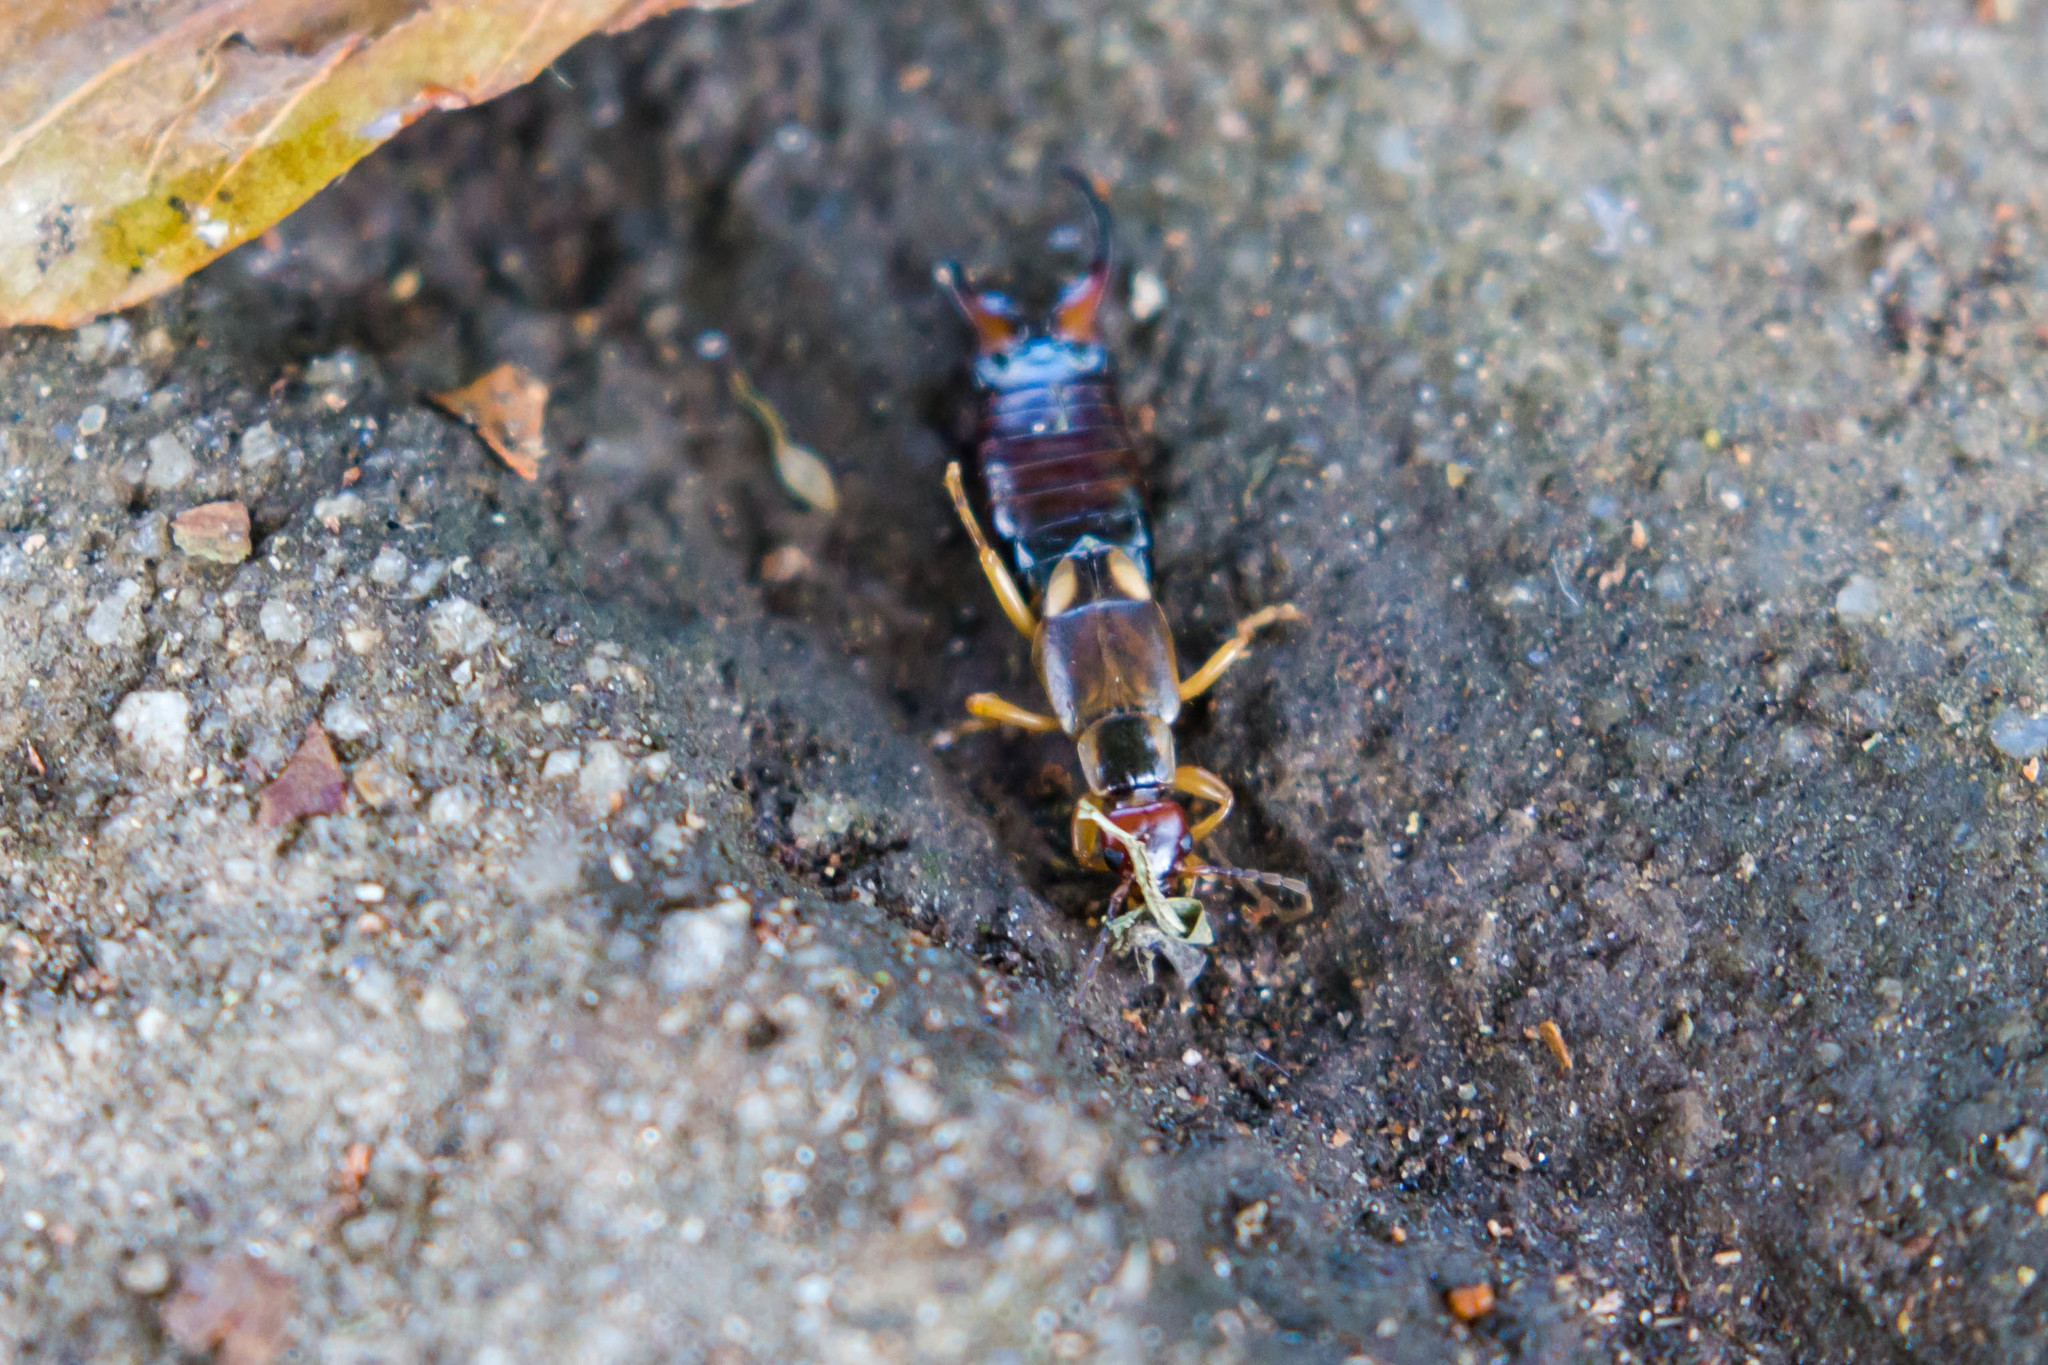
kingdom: Animalia
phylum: Arthropoda
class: Insecta
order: Dermaptera
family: Forficulidae
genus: Forficula
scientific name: Forficula
